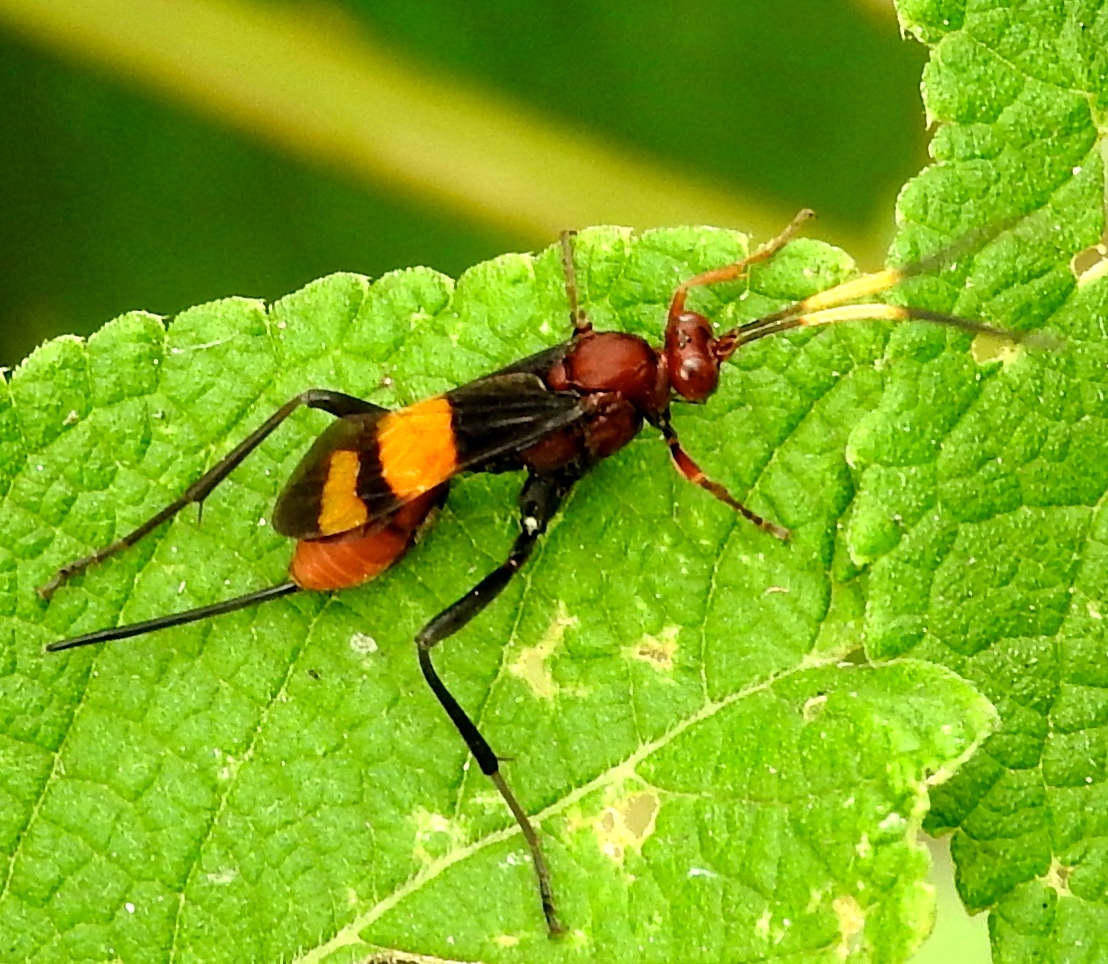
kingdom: Animalia
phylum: Arthropoda
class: Insecta
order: Hymenoptera
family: Ichneumonidae
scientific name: Ichneumonidae
